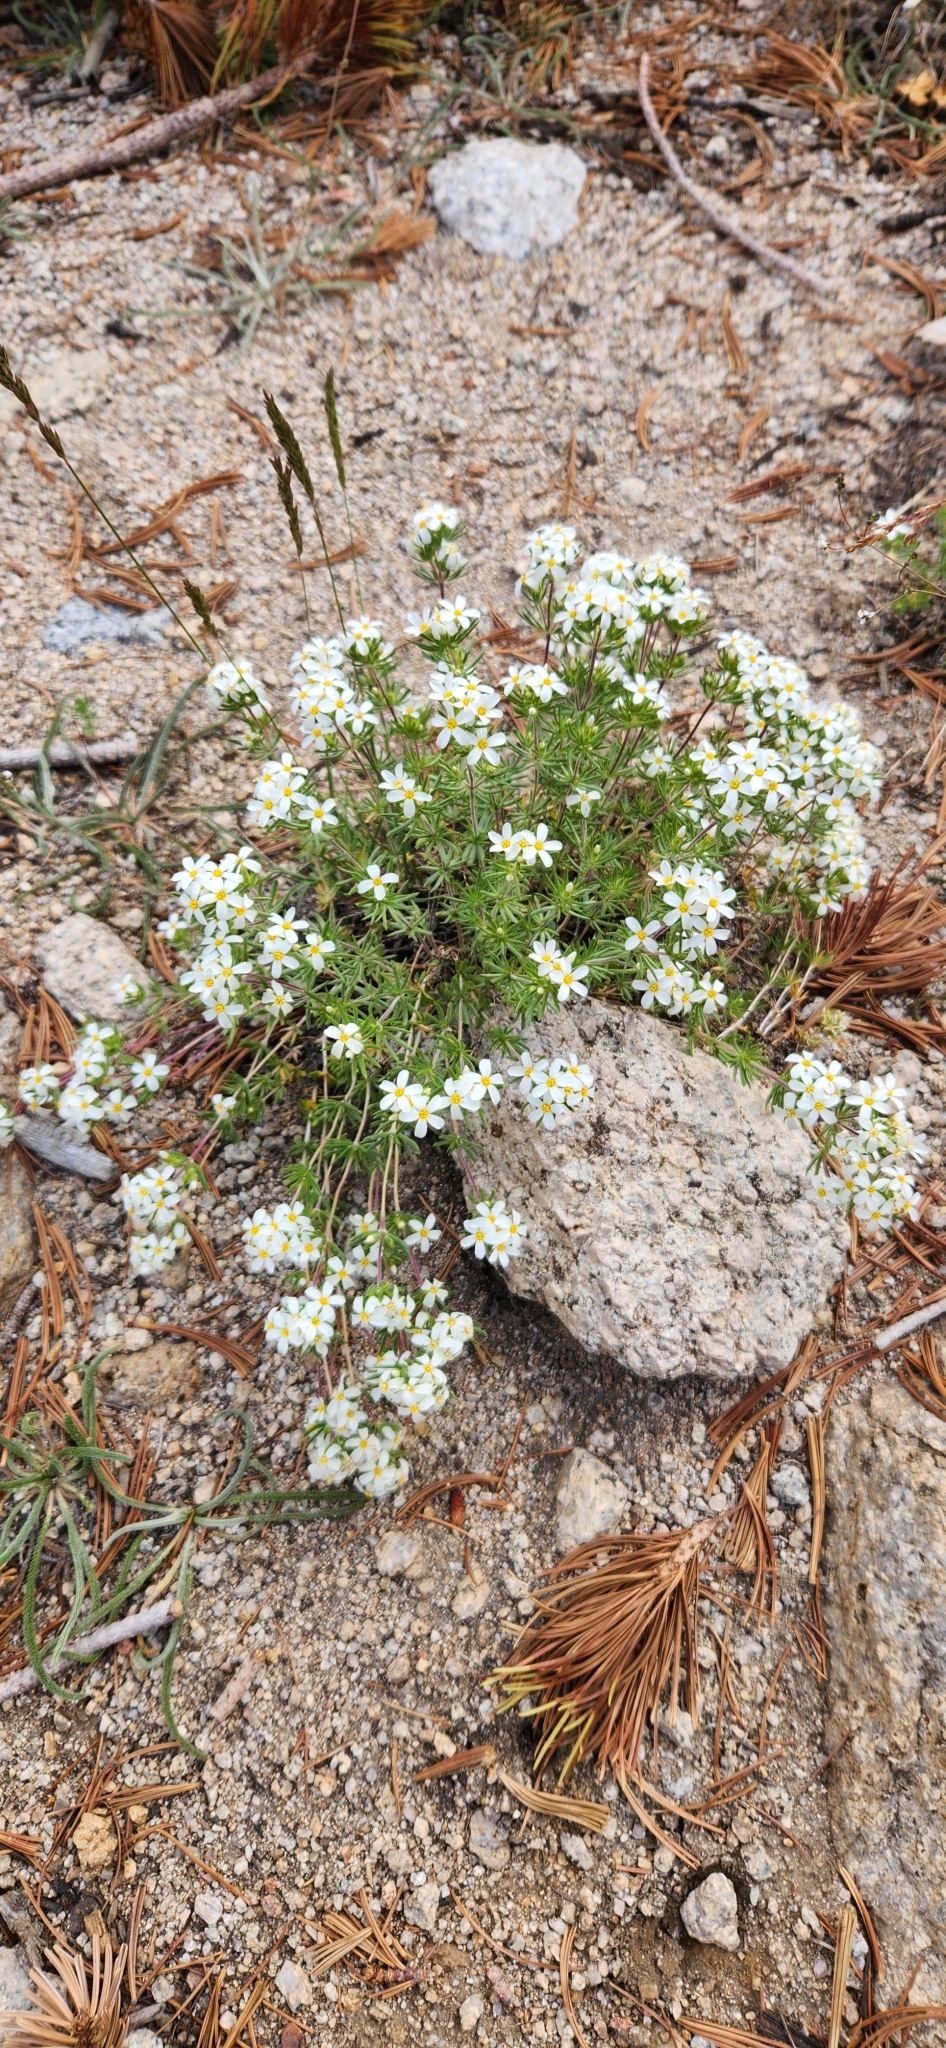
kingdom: Plantae
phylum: Tracheophyta
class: Magnoliopsida
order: Ericales
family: Polemoniaceae
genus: Leptosiphon
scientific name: Leptosiphon nuttallii
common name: Nuttall's linanthus
